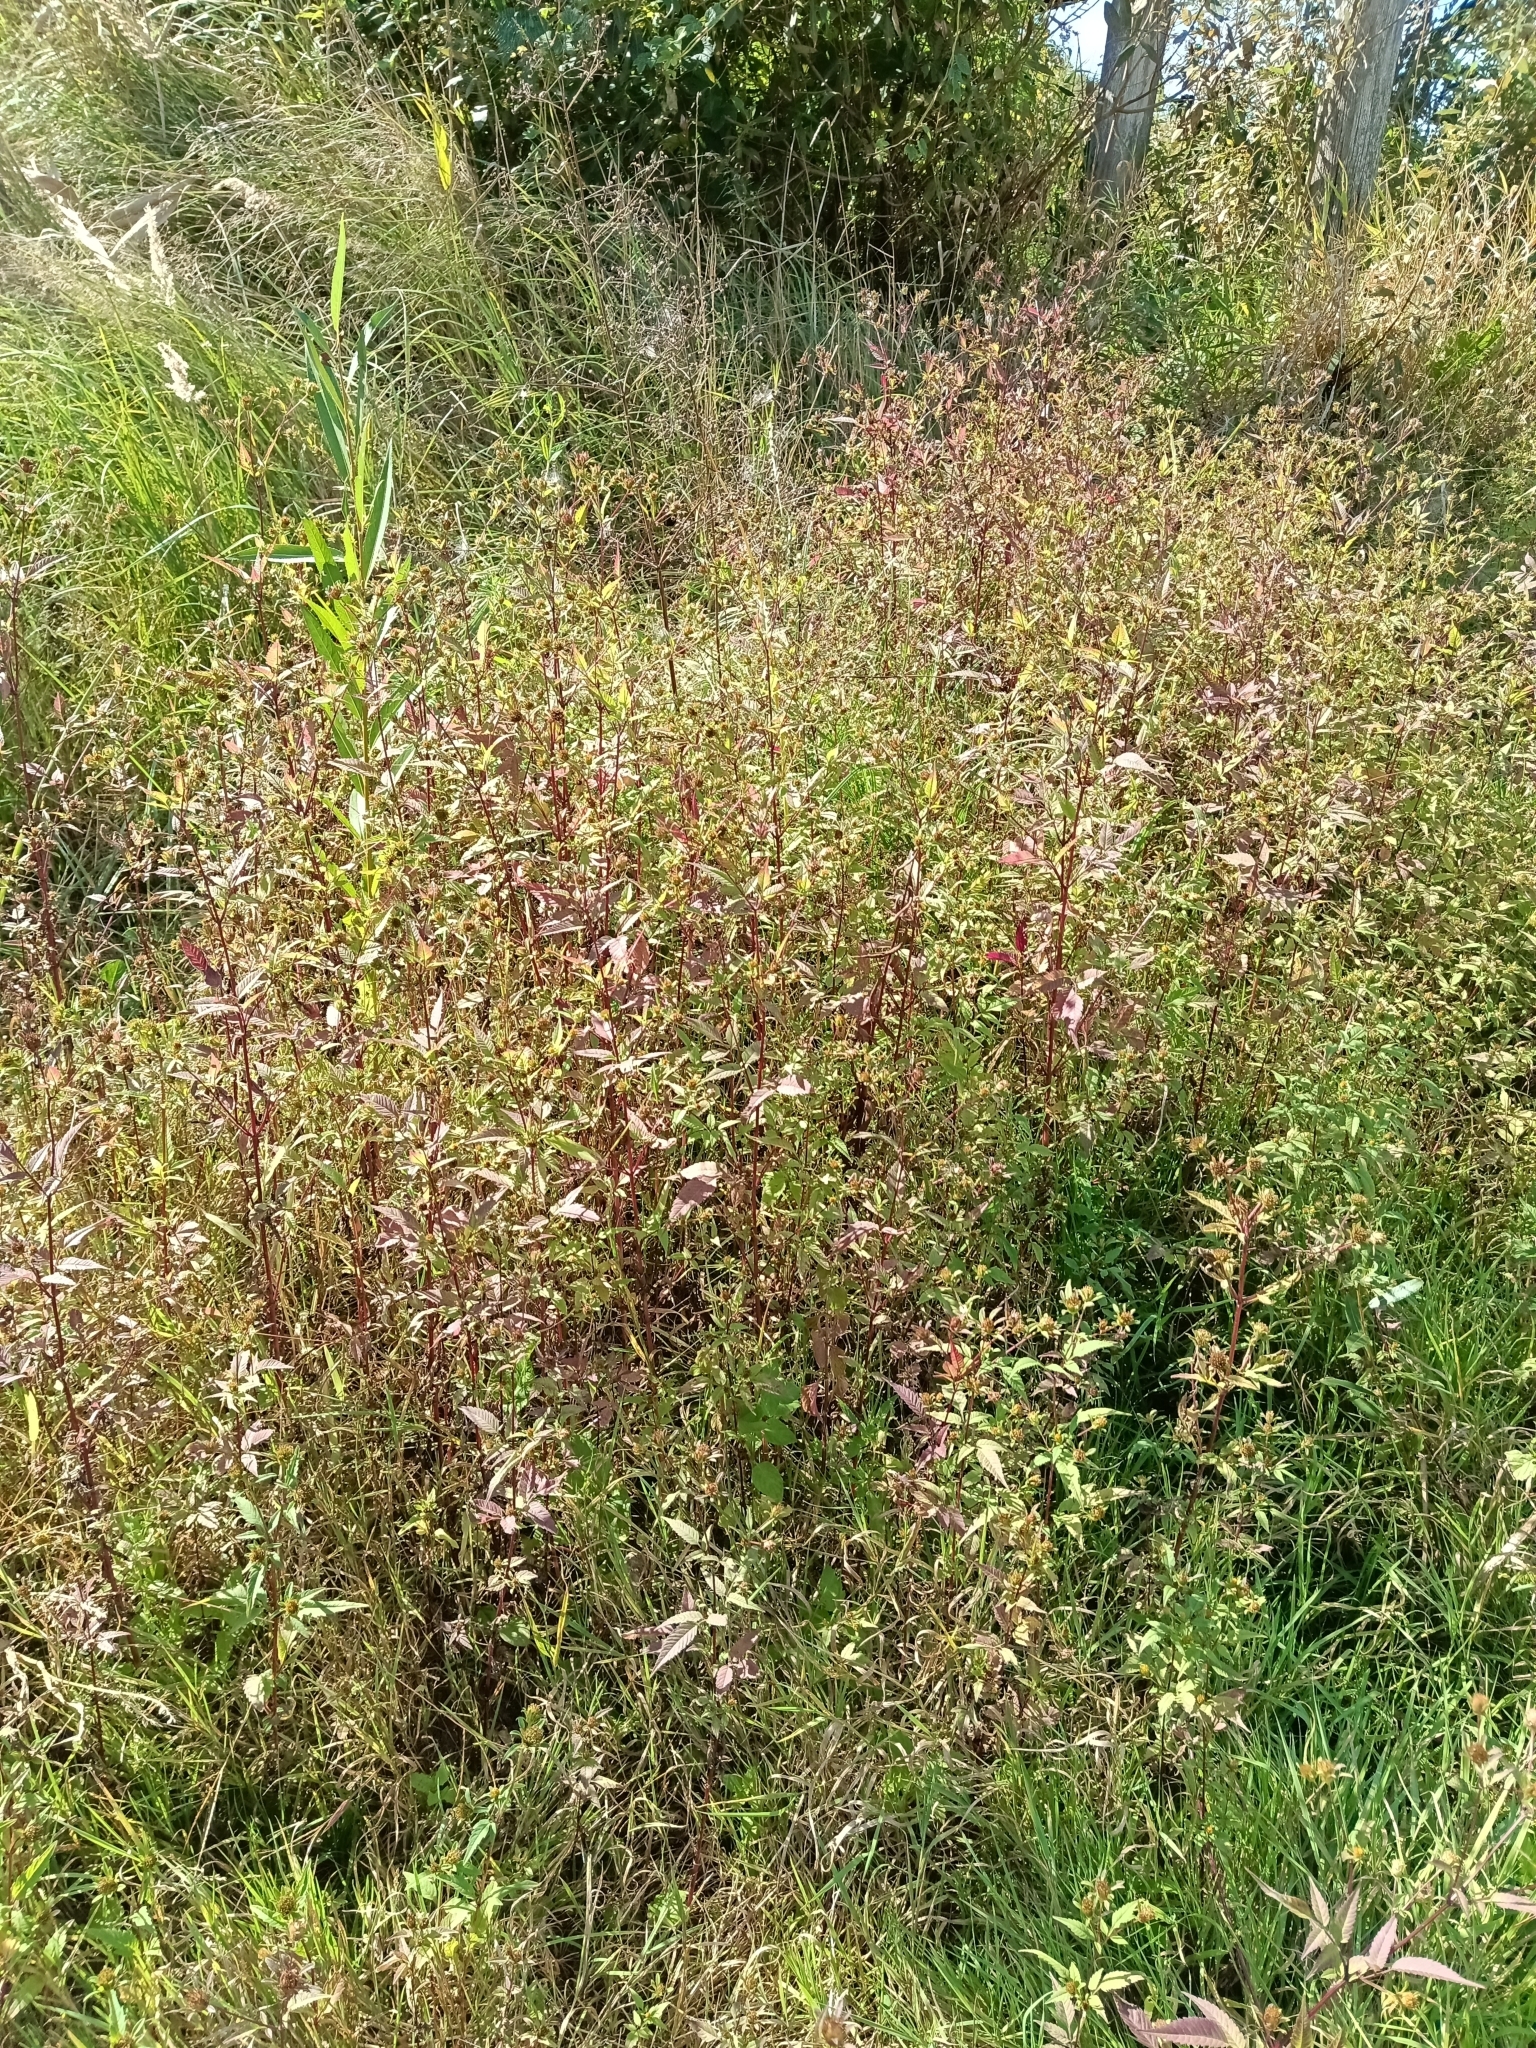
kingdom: Plantae
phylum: Tracheophyta
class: Magnoliopsida
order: Asterales
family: Asteraceae
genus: Bidens
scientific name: Bidens frondosa
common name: Beggarticks
